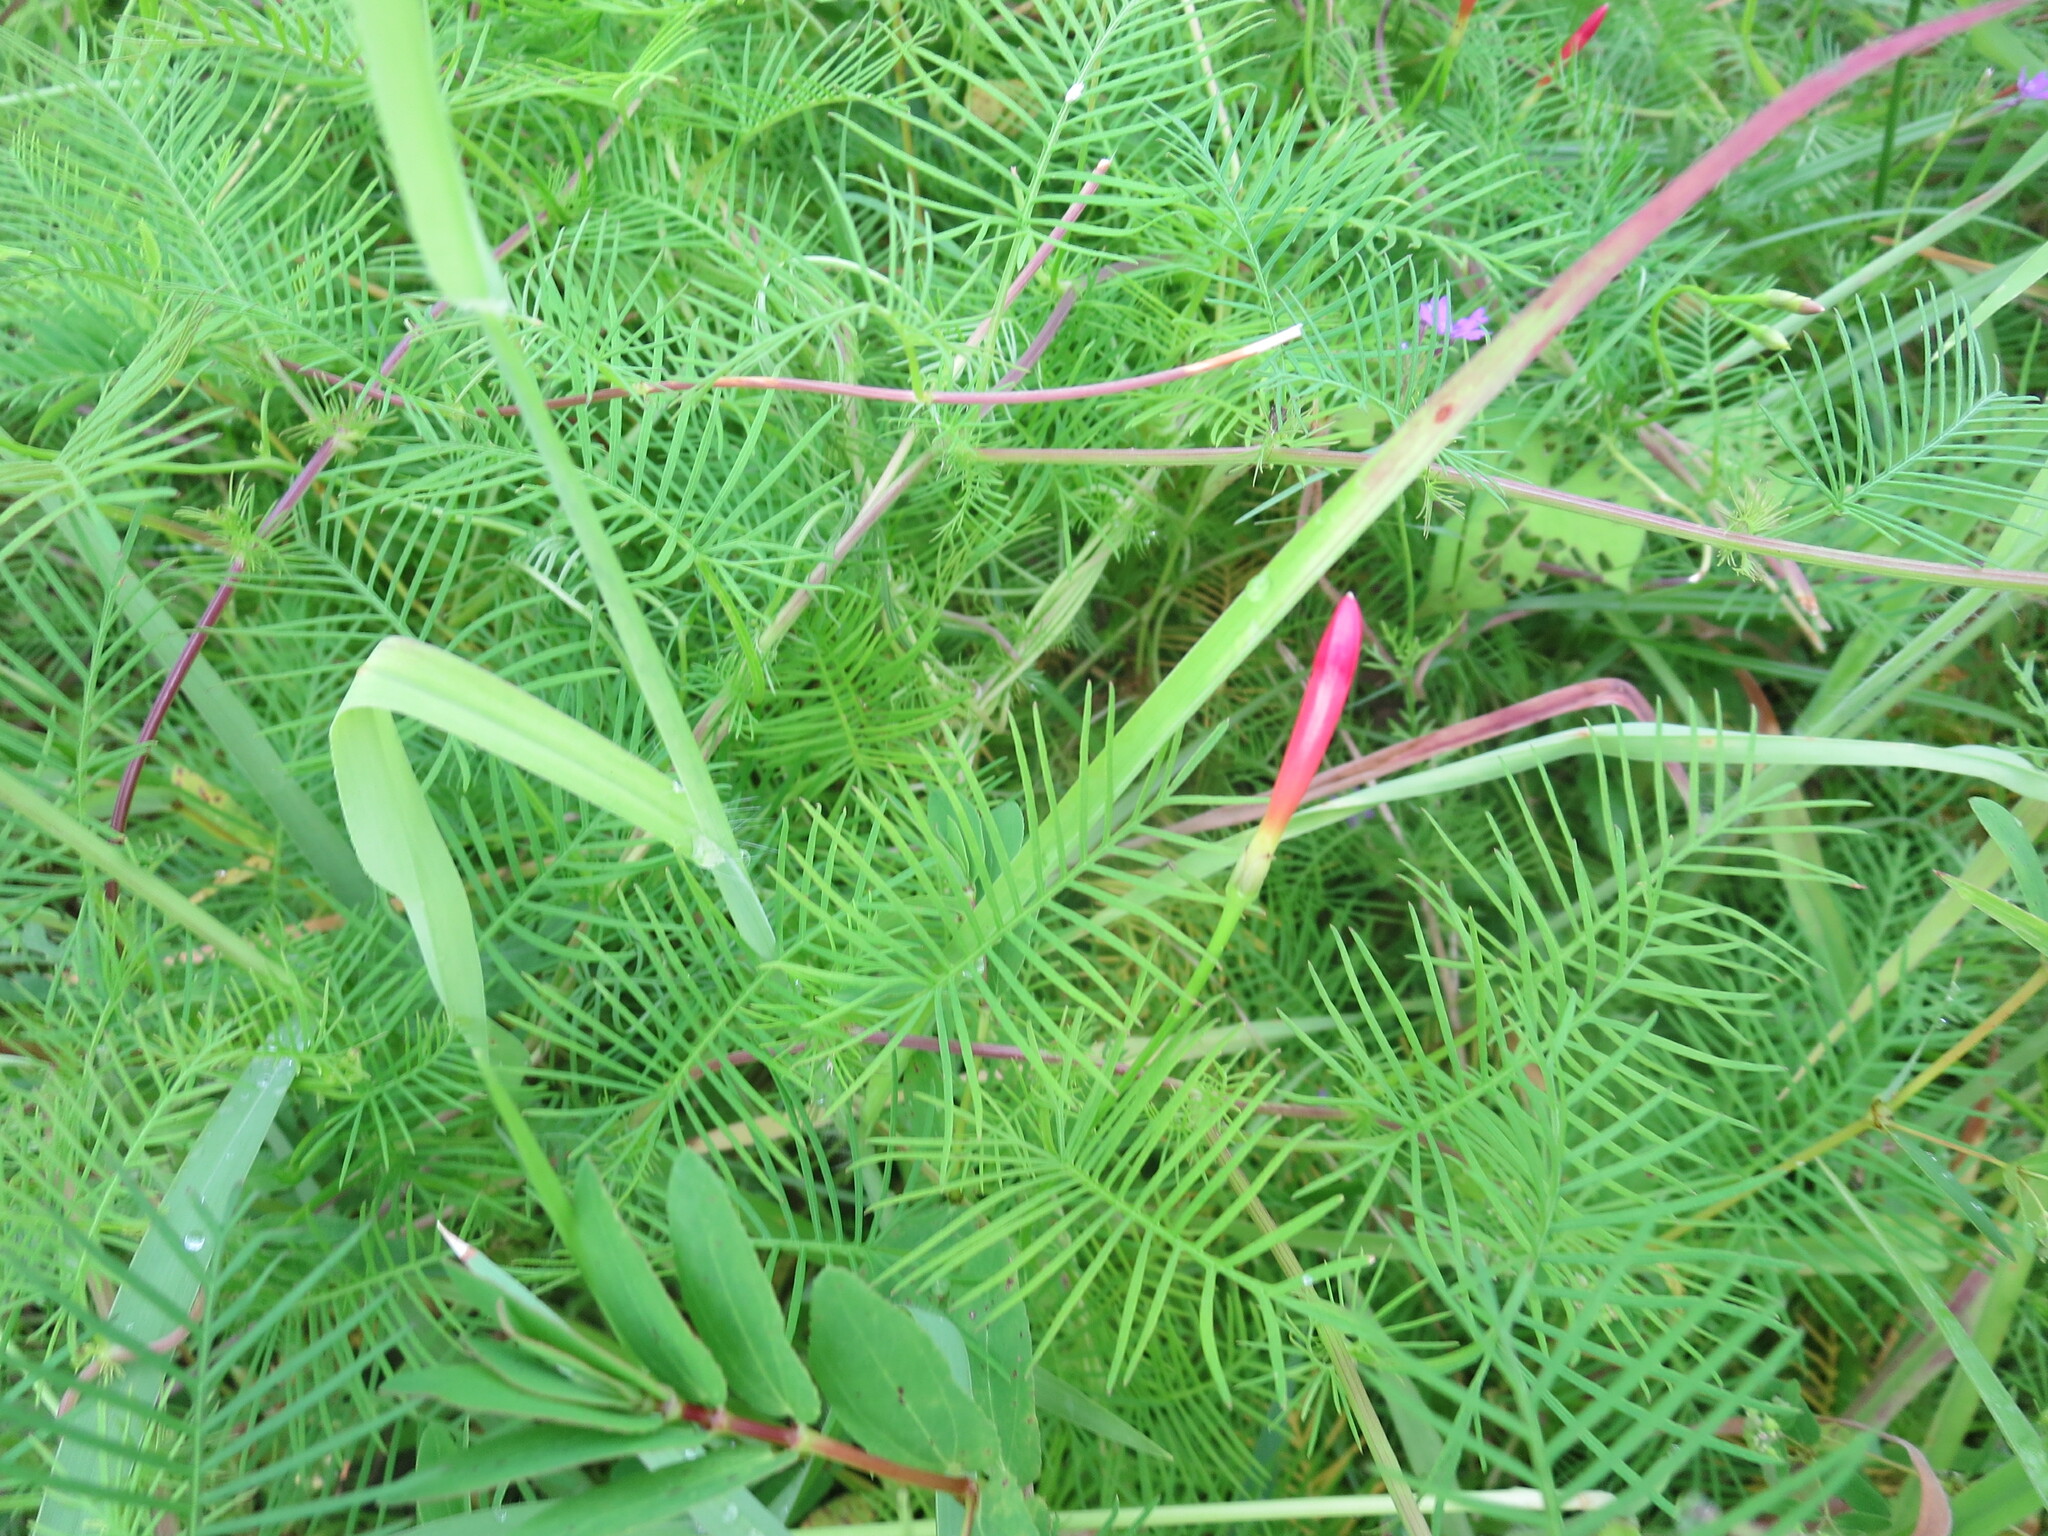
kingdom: Plantae
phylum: Tracheophyta
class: Magnoliopsida
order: Solanales
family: Convolvulaceae
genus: Ipomoea
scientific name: Ipomoea quamoclit
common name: Cypress vine
